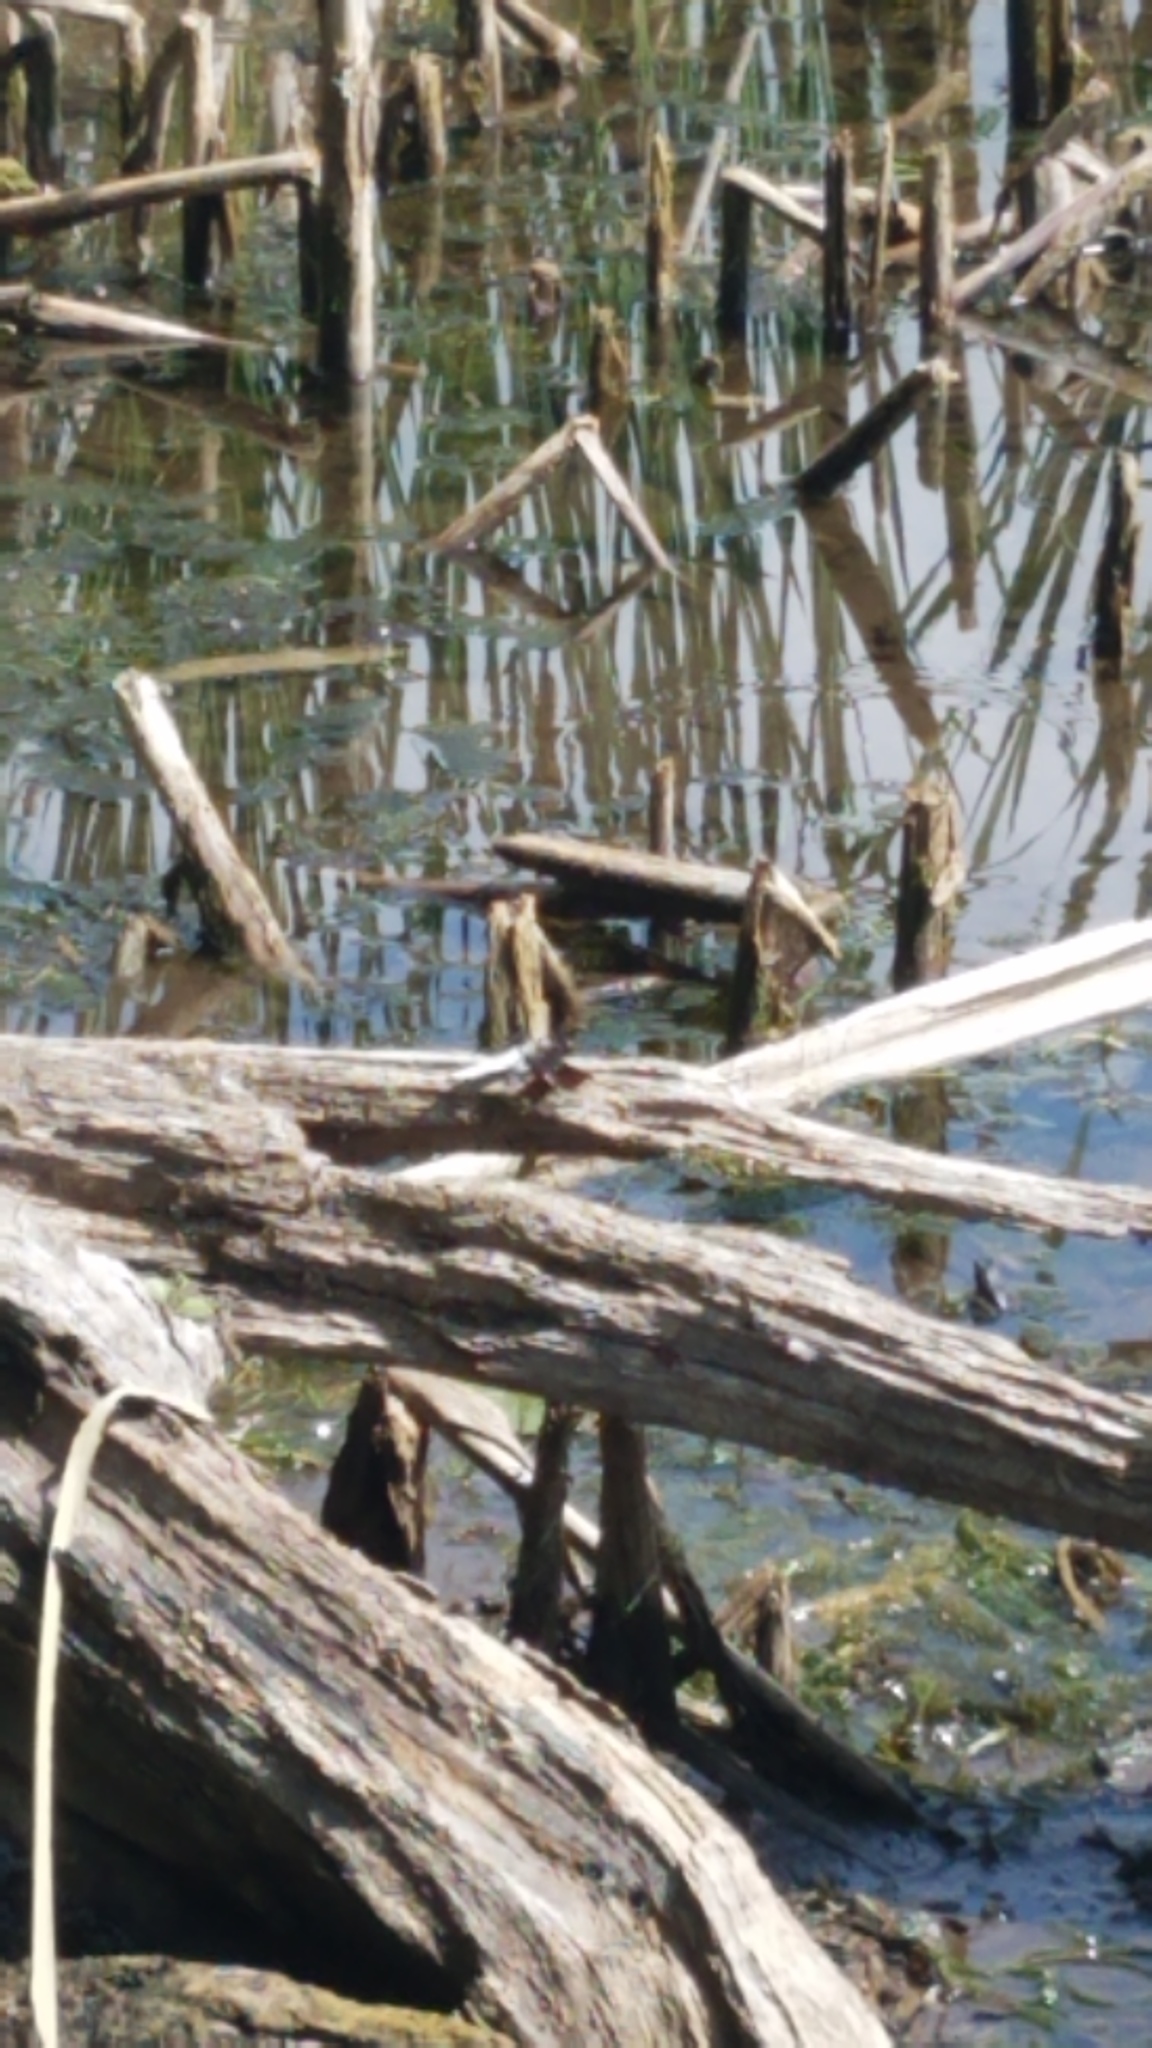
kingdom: Animalia
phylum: Arthropoda
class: Insecta
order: Odonata
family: Libellulidae
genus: Plathemis
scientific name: Plathemis lydia
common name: Common whitetail
